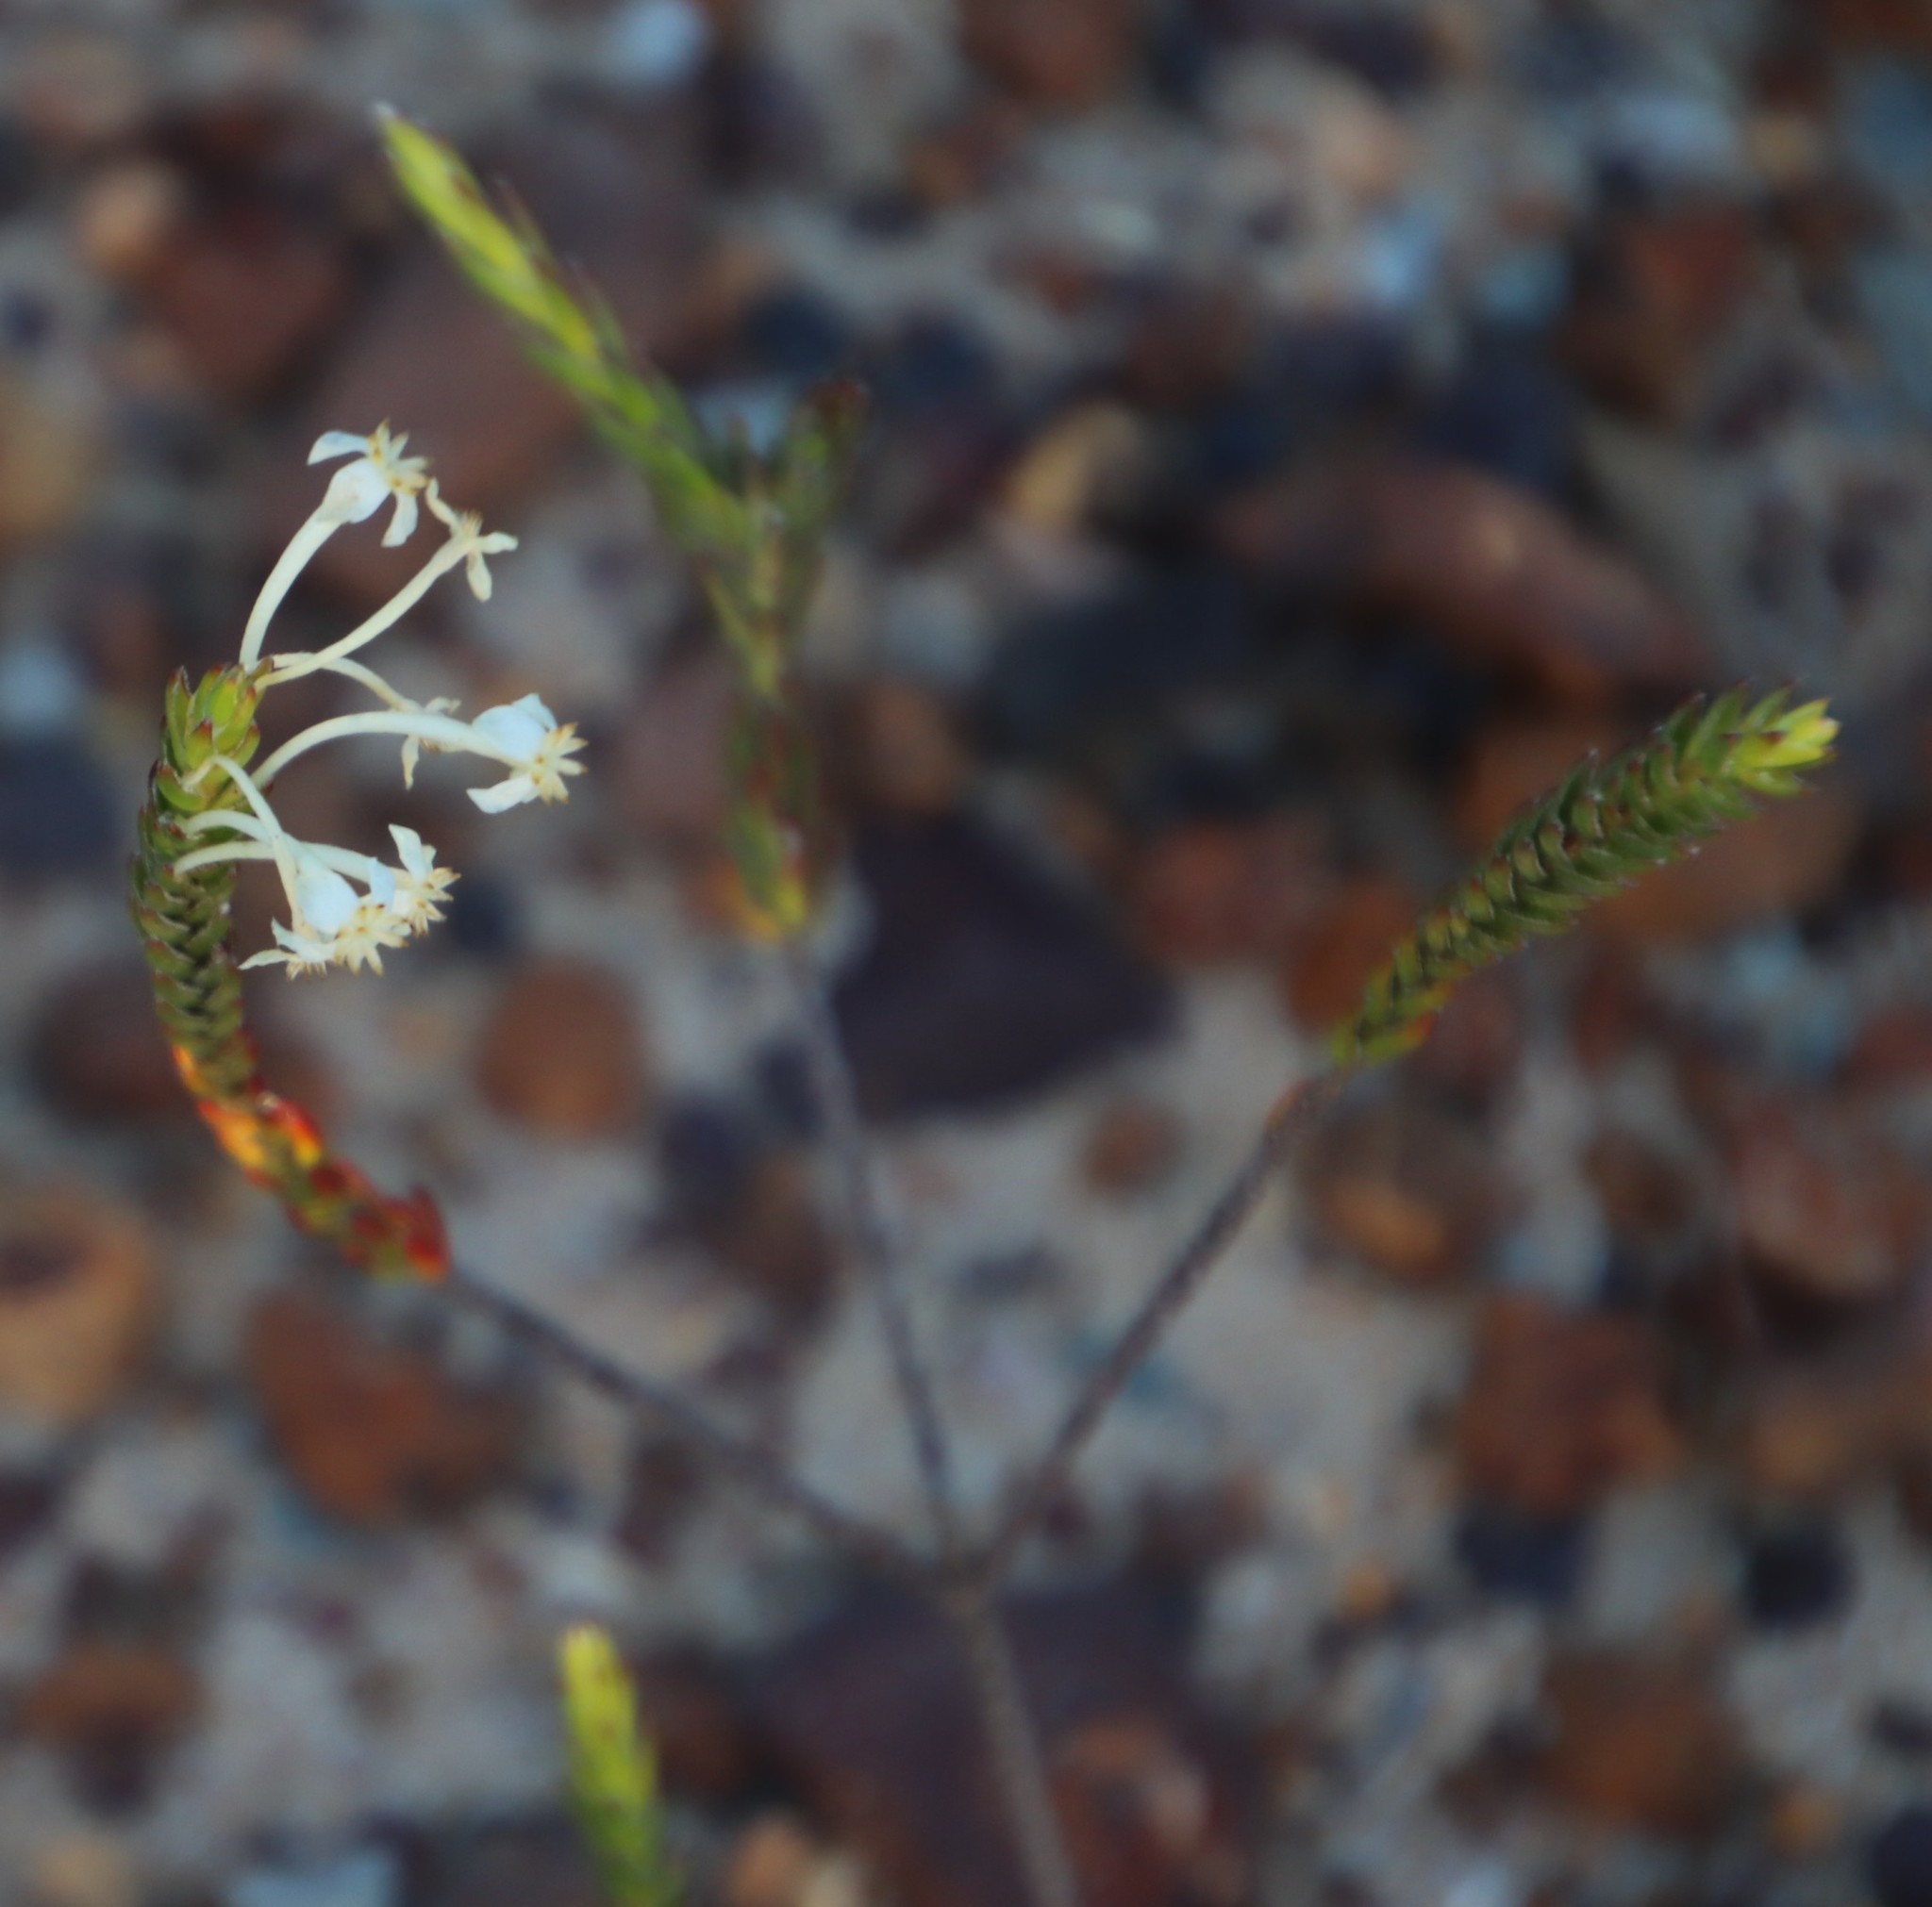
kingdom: Plantae
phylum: Tracheophyta
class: Magnoliopsida
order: Malvales
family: Thymelaeaceae
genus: Struthiola
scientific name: Struthiola myrsinites
